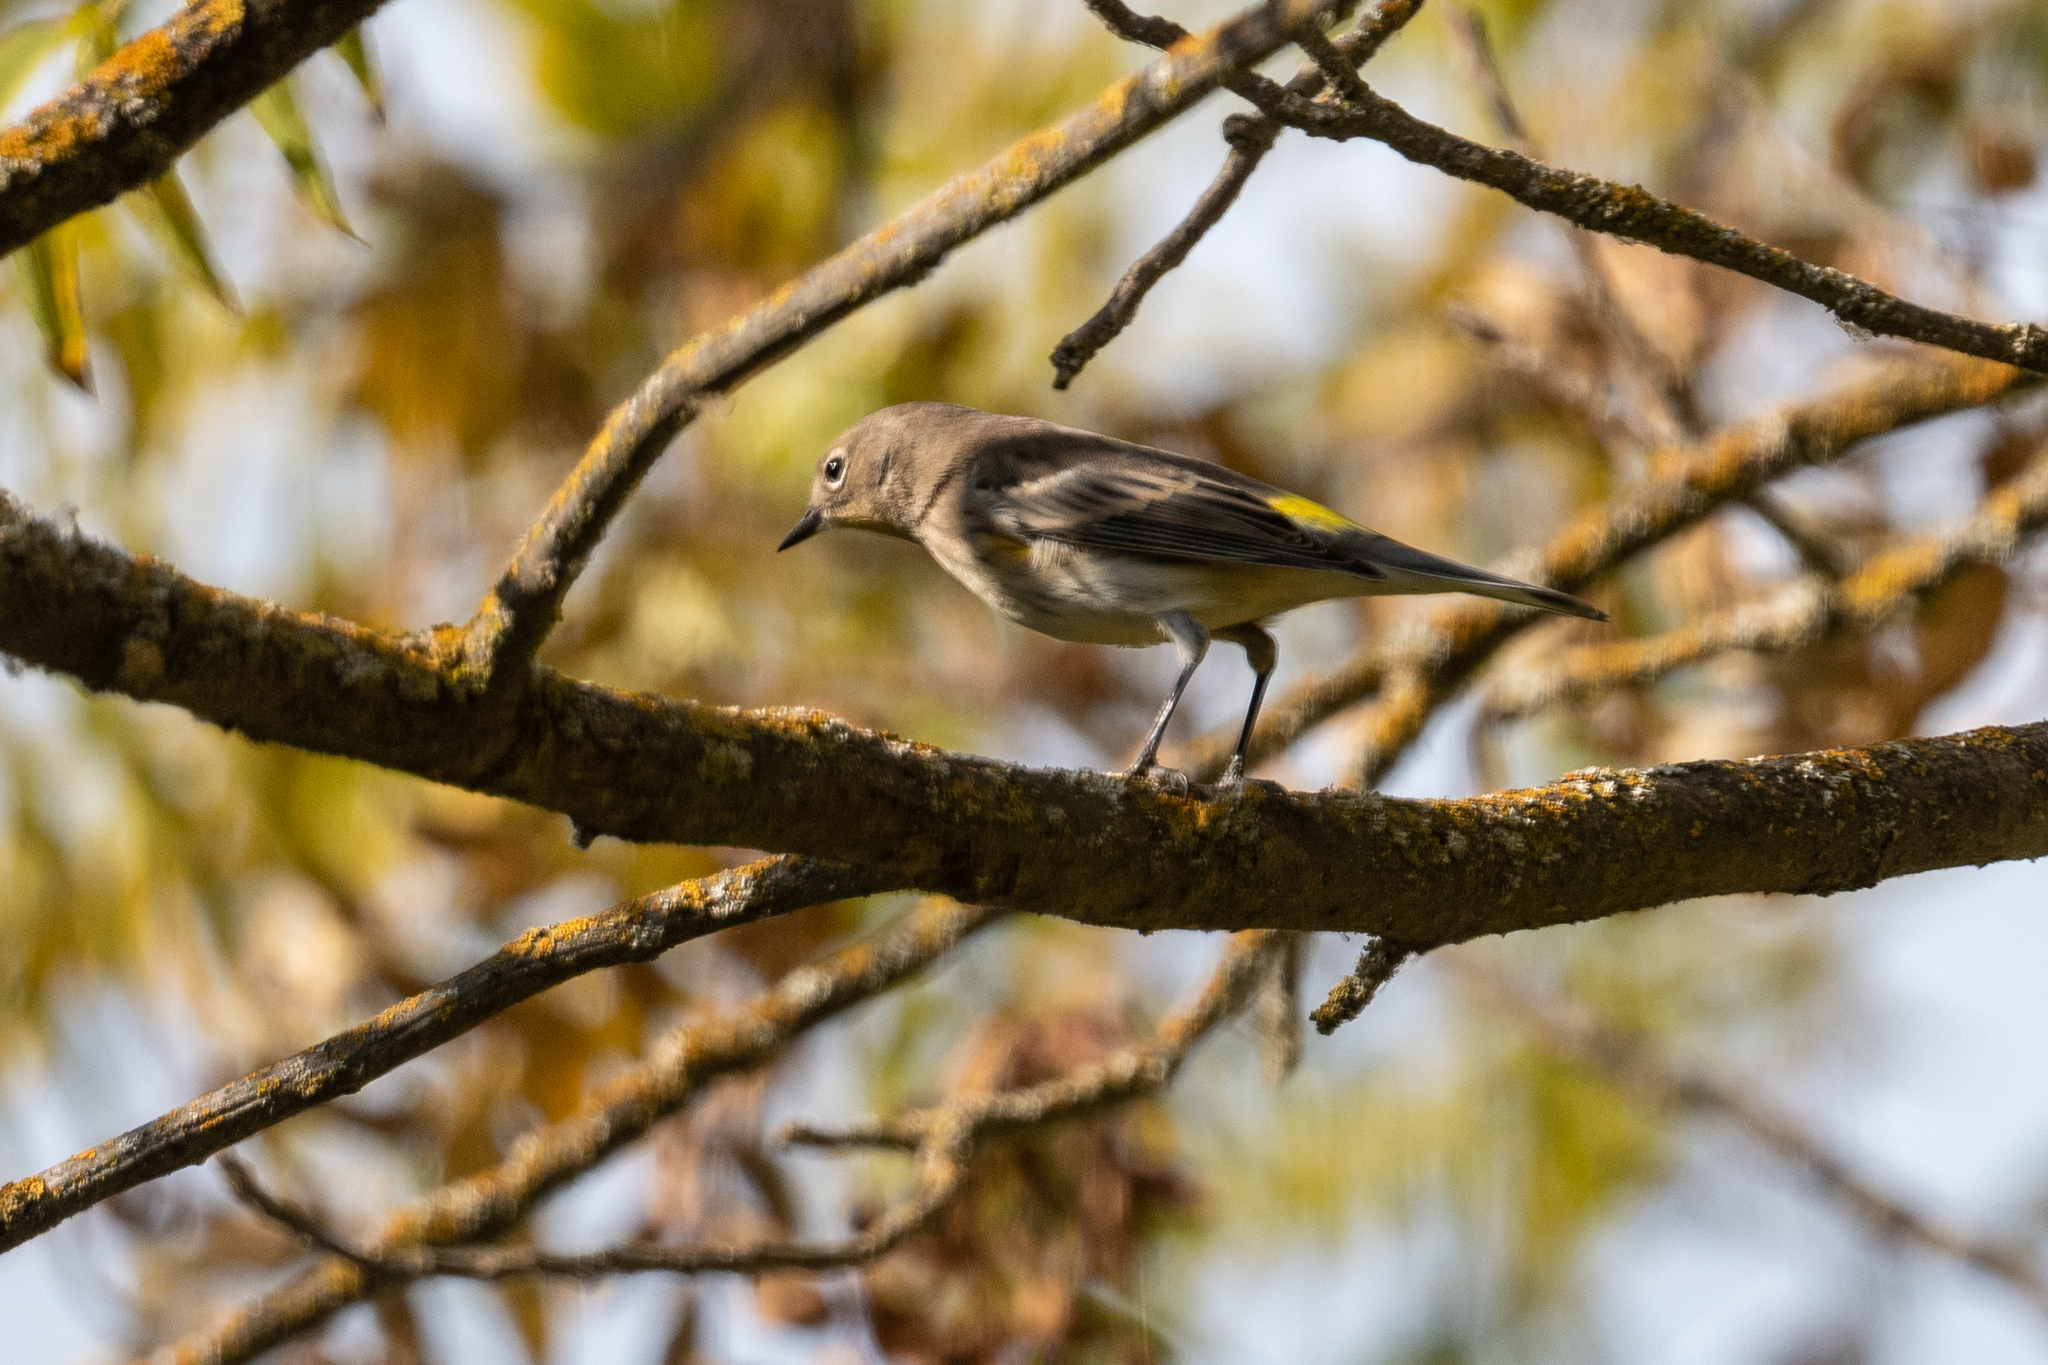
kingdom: Animalia
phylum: Chordata
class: Aves
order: Passeriformes
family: Parulidae
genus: Setophaga
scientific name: Setophaga coronata
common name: Myrtle warbler
